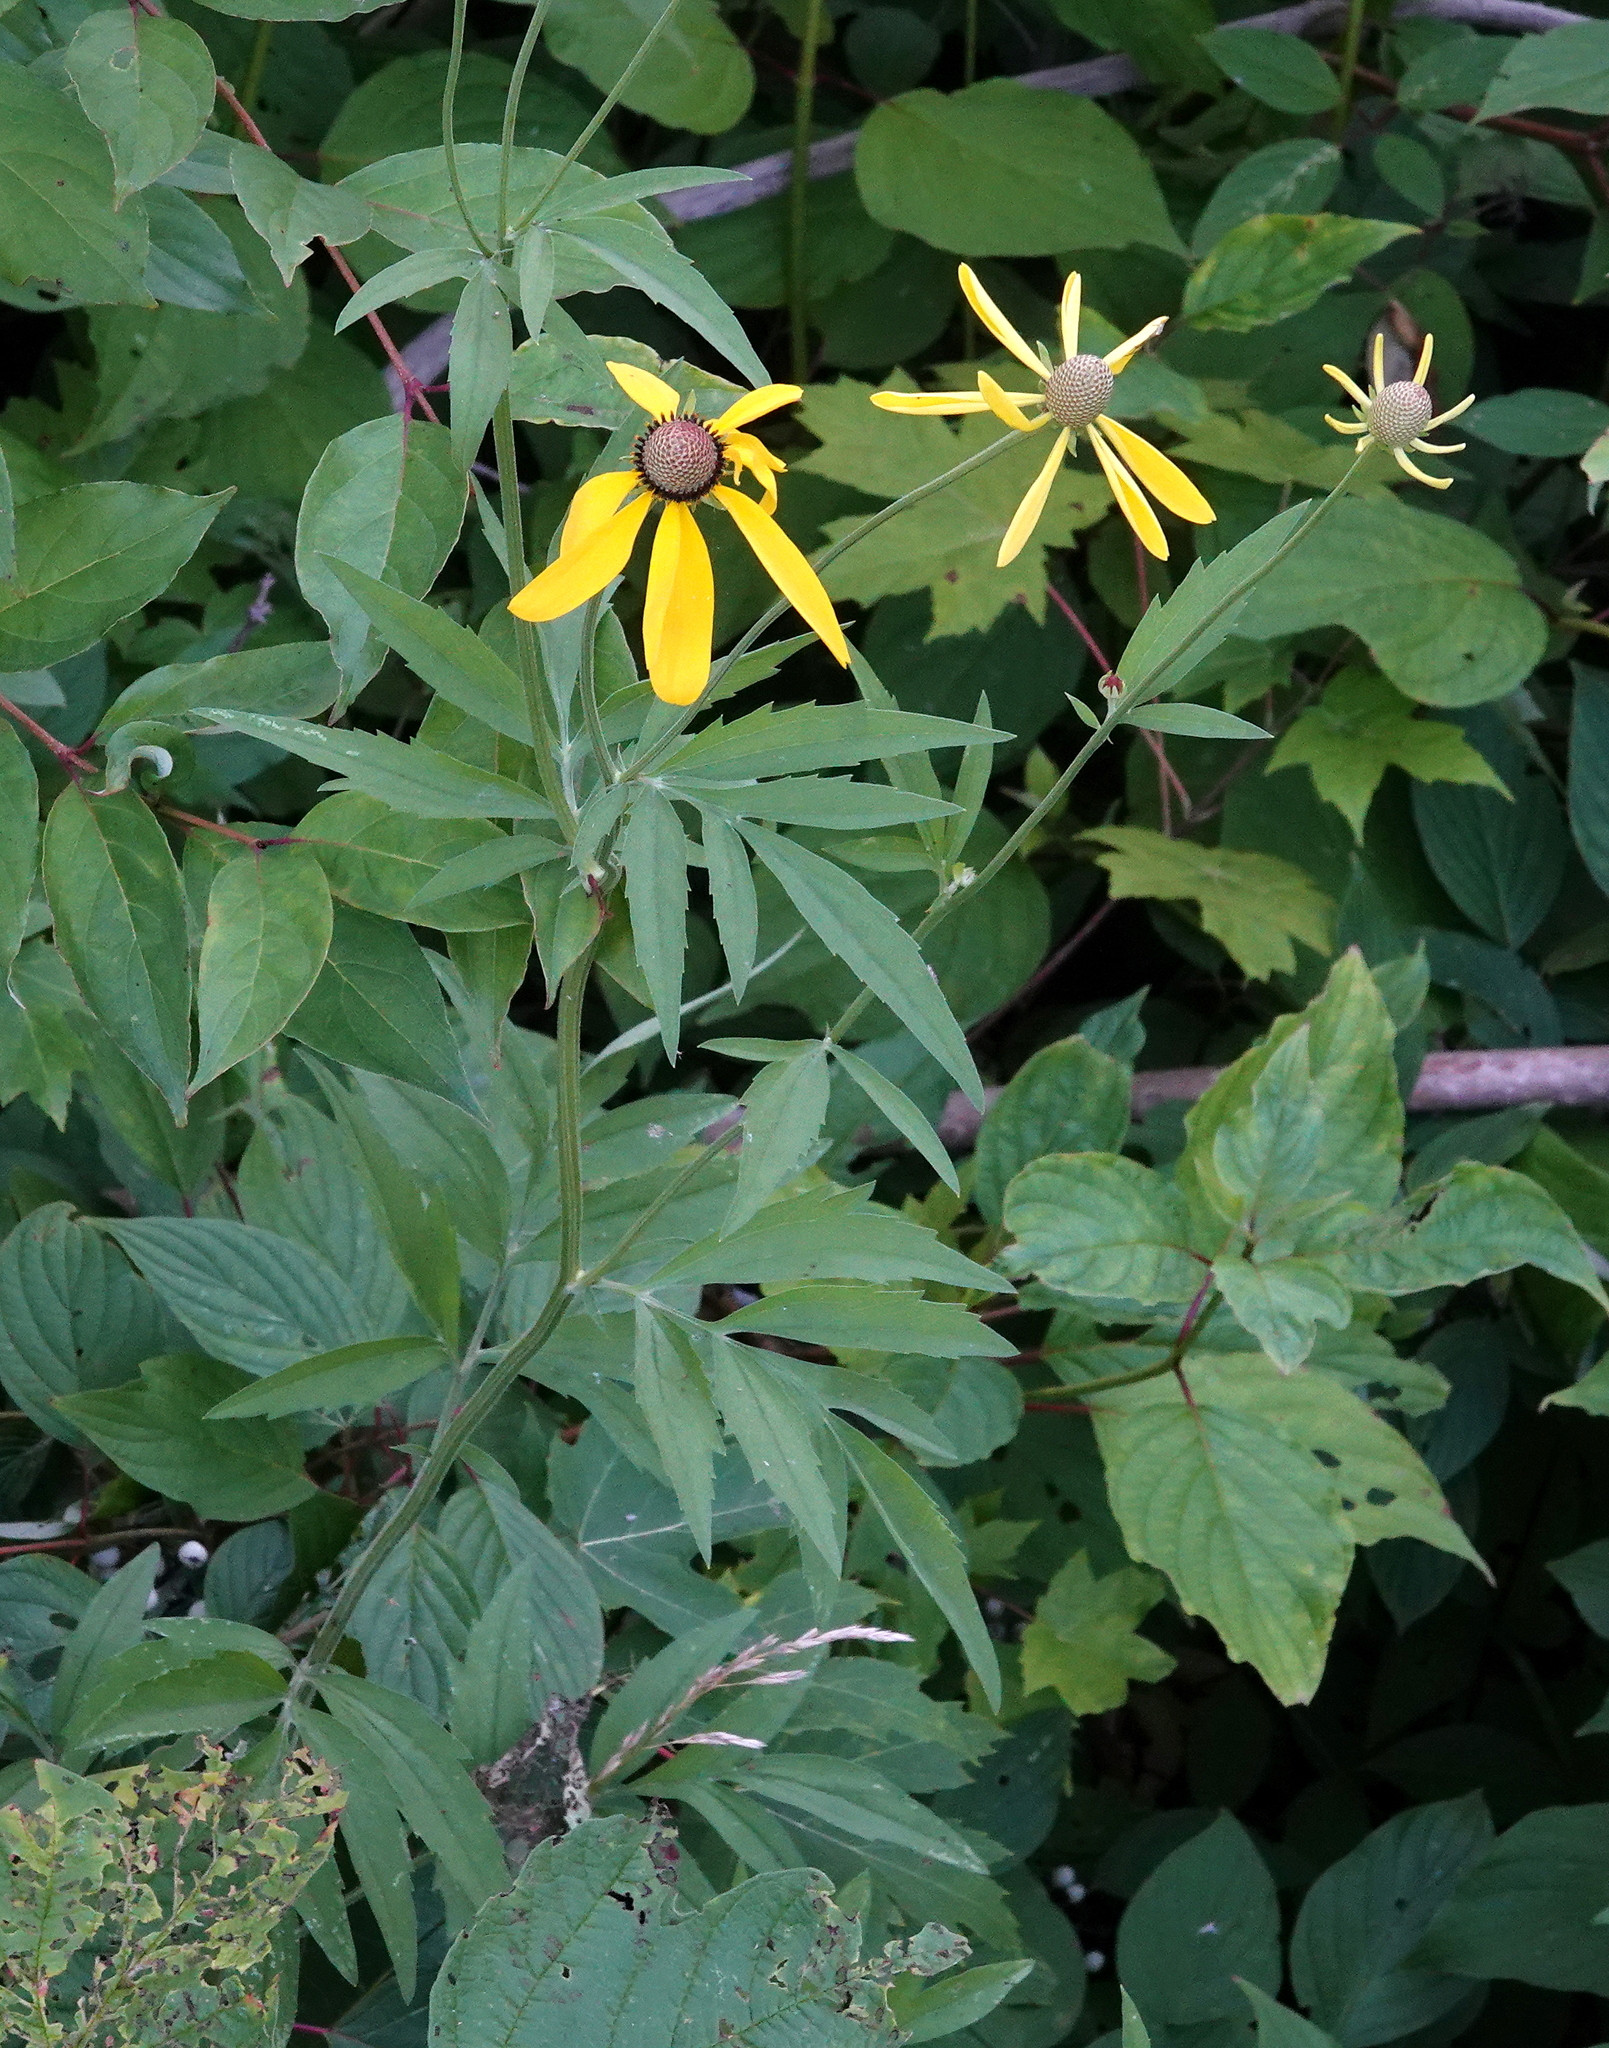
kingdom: Plantae
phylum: Tracheophyta
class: Magnoliopsida
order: Asterales
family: Asteraceae
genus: Ratibida
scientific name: Ratibida pinnata
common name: Drooping prairie-coneflower
